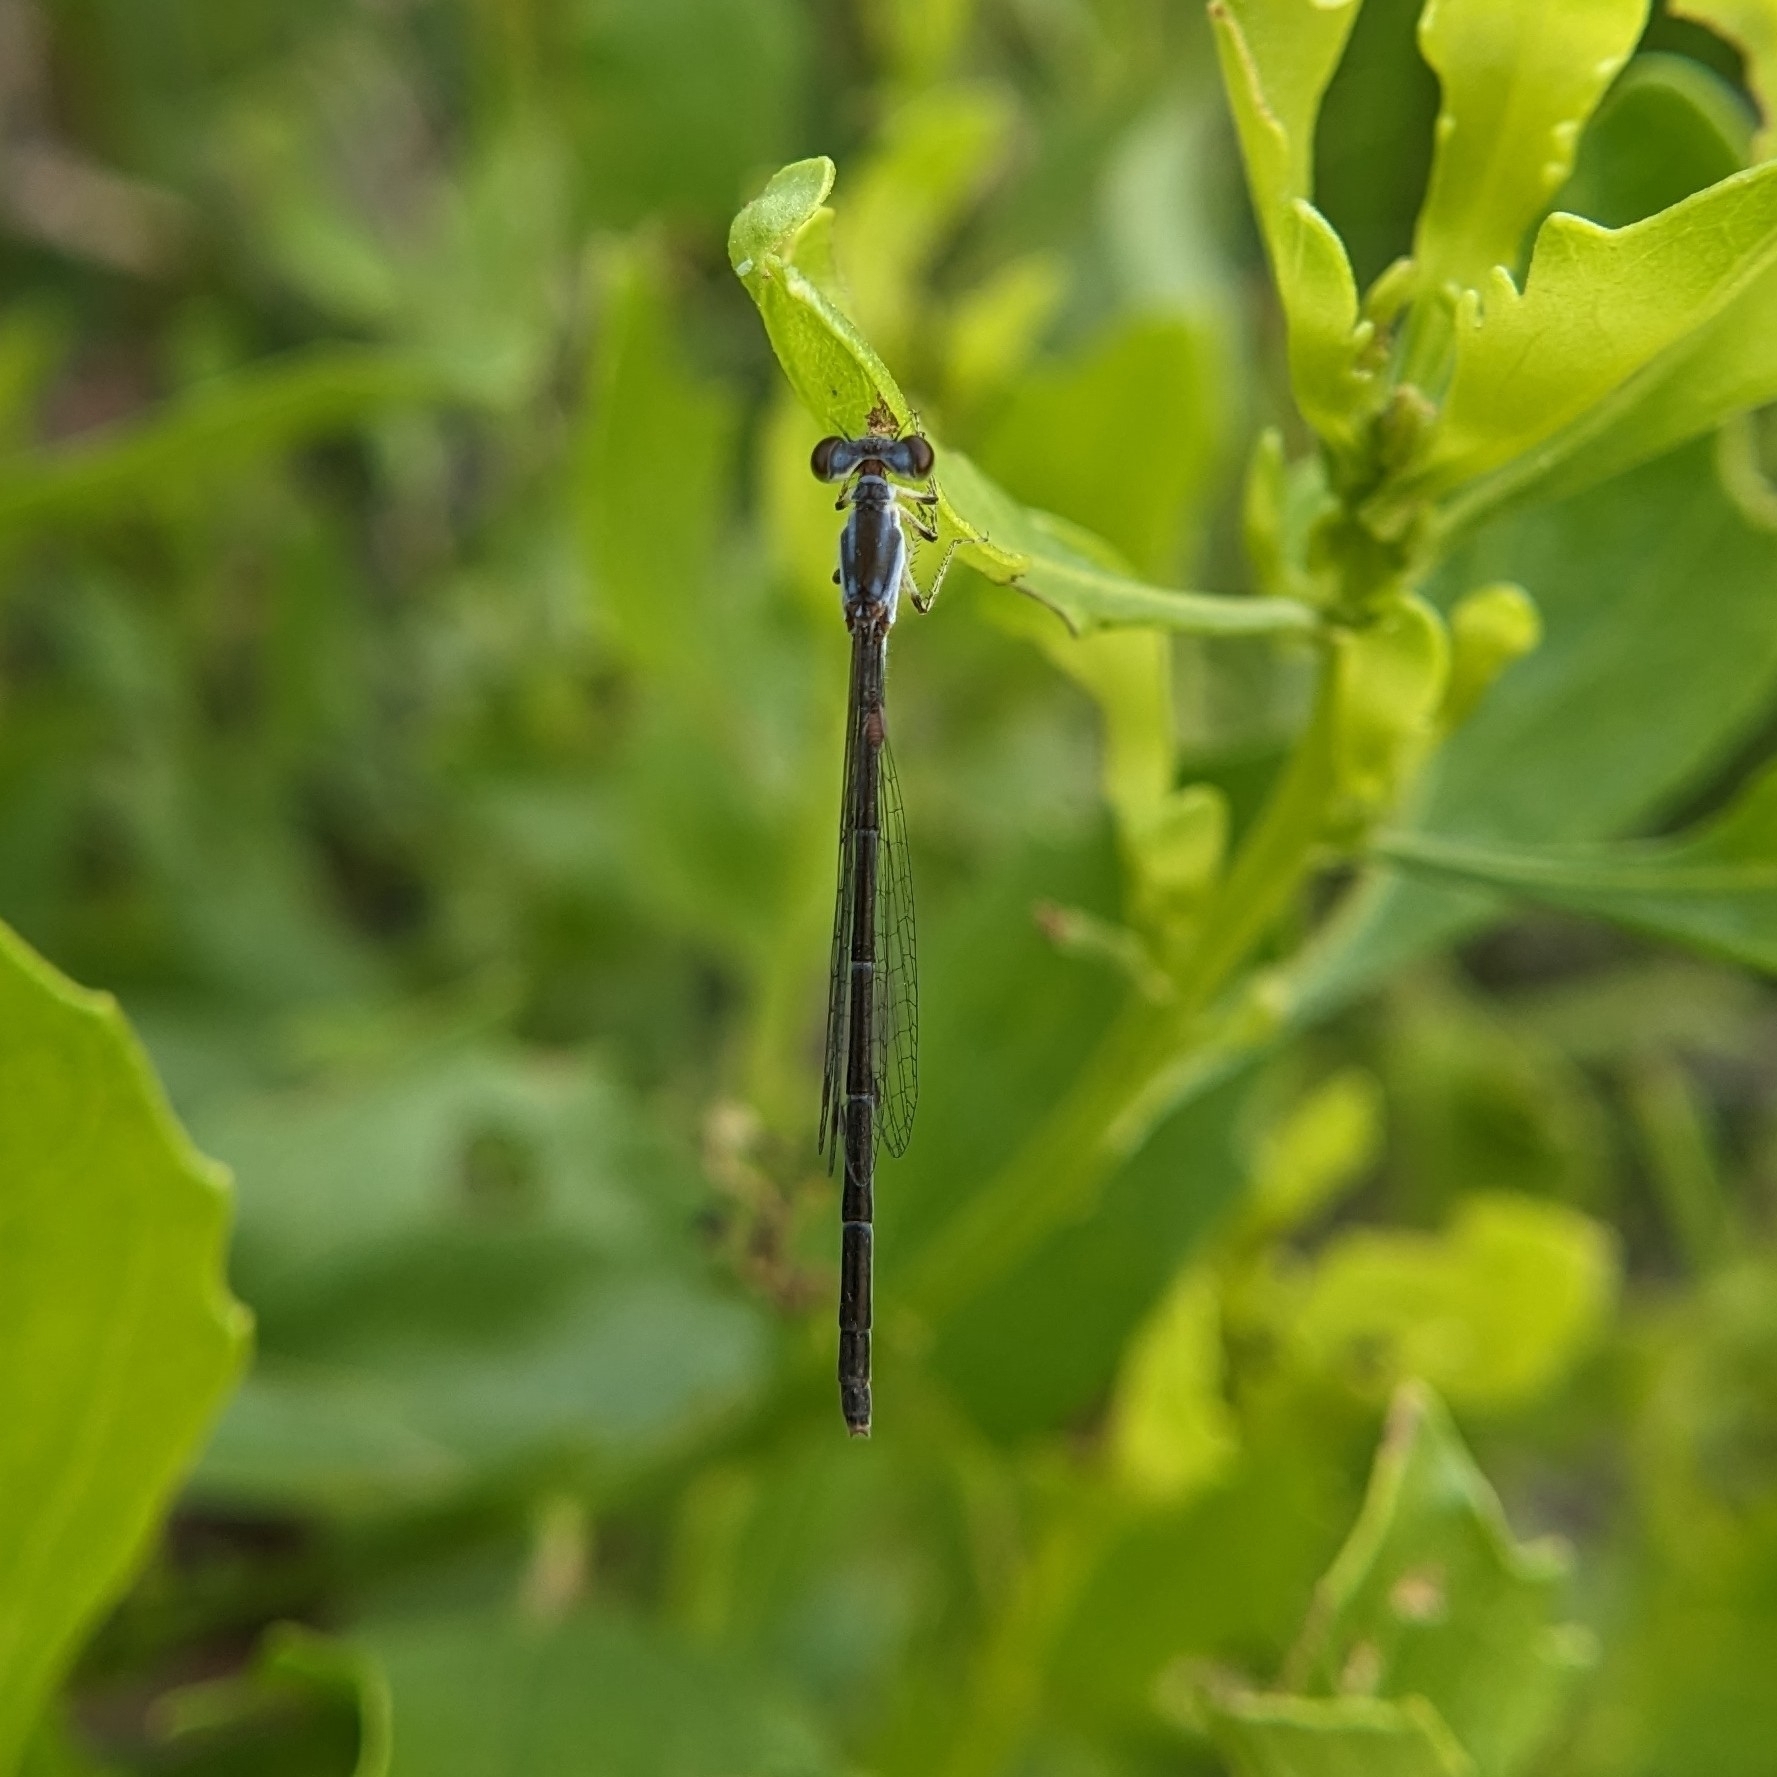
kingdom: Animalia
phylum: Arthropoda
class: Insecta
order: Odonata
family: Coenagrionidae
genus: Ischnura
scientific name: Ischnura posita
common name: Fragile forktail
